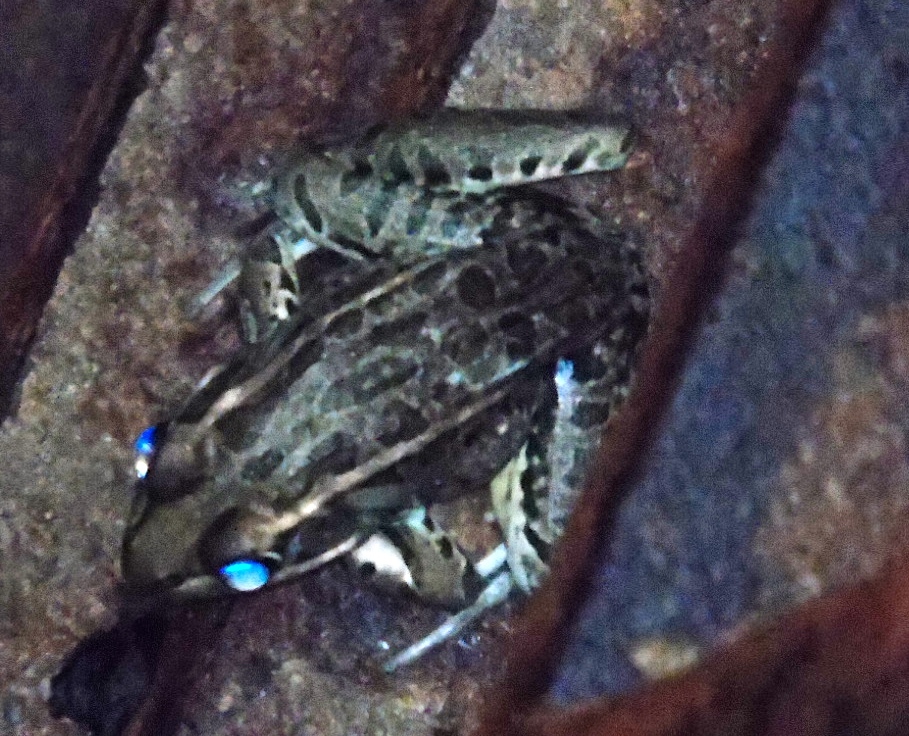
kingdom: Animalia
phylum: Chordata
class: Amphibia
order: Anura
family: Ranidae
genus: Lithobates
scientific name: Lithobates
